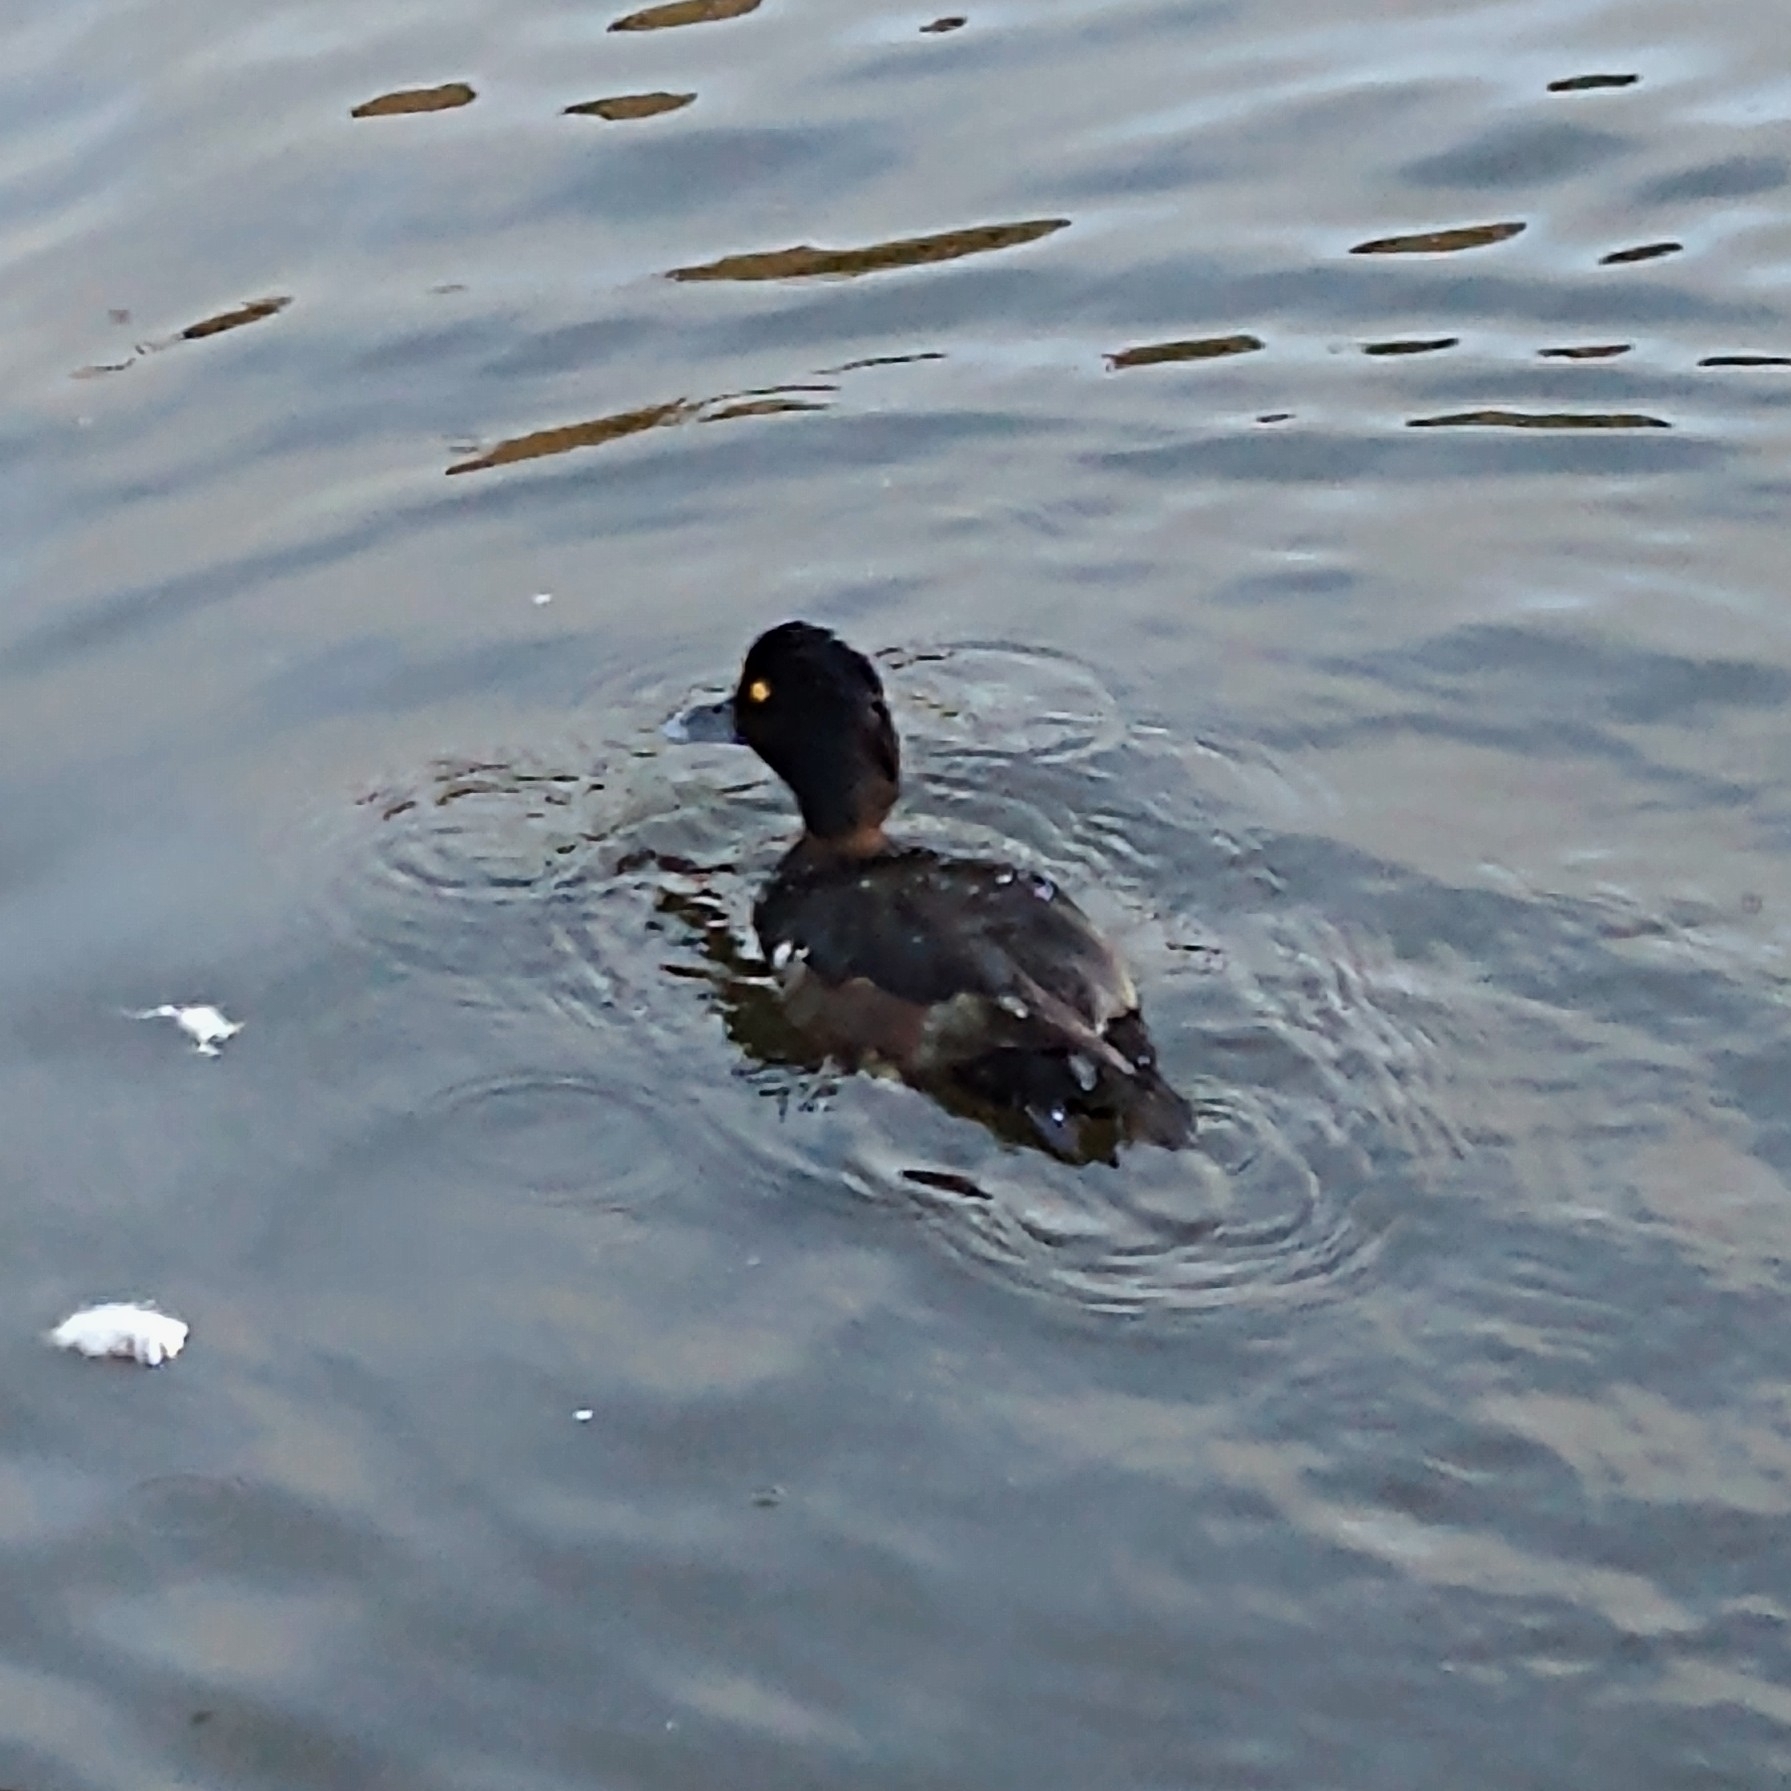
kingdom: Animalia
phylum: Chordata
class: Aves
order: Anseriformes
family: Anatidae
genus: Aythya
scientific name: Aythya fuligula
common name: Tufted duck
